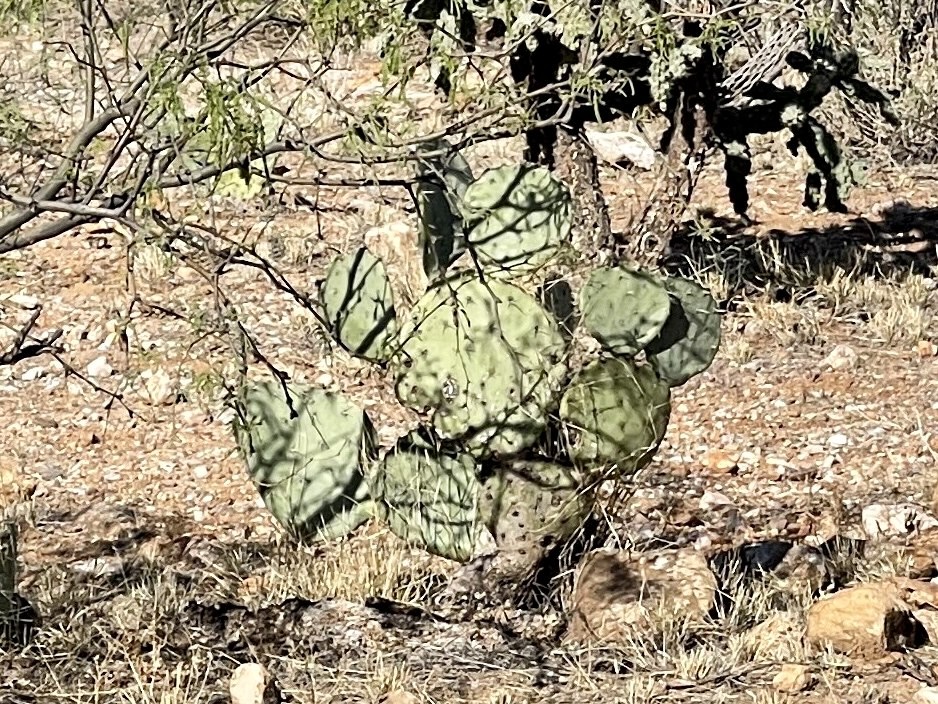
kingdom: Plantae
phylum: Tracheophyta
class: Magnoliopsida
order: Caryophyllales
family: Cactaceae
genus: Opuntia
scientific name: Opuntia engelmannii
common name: Cactus-apple
